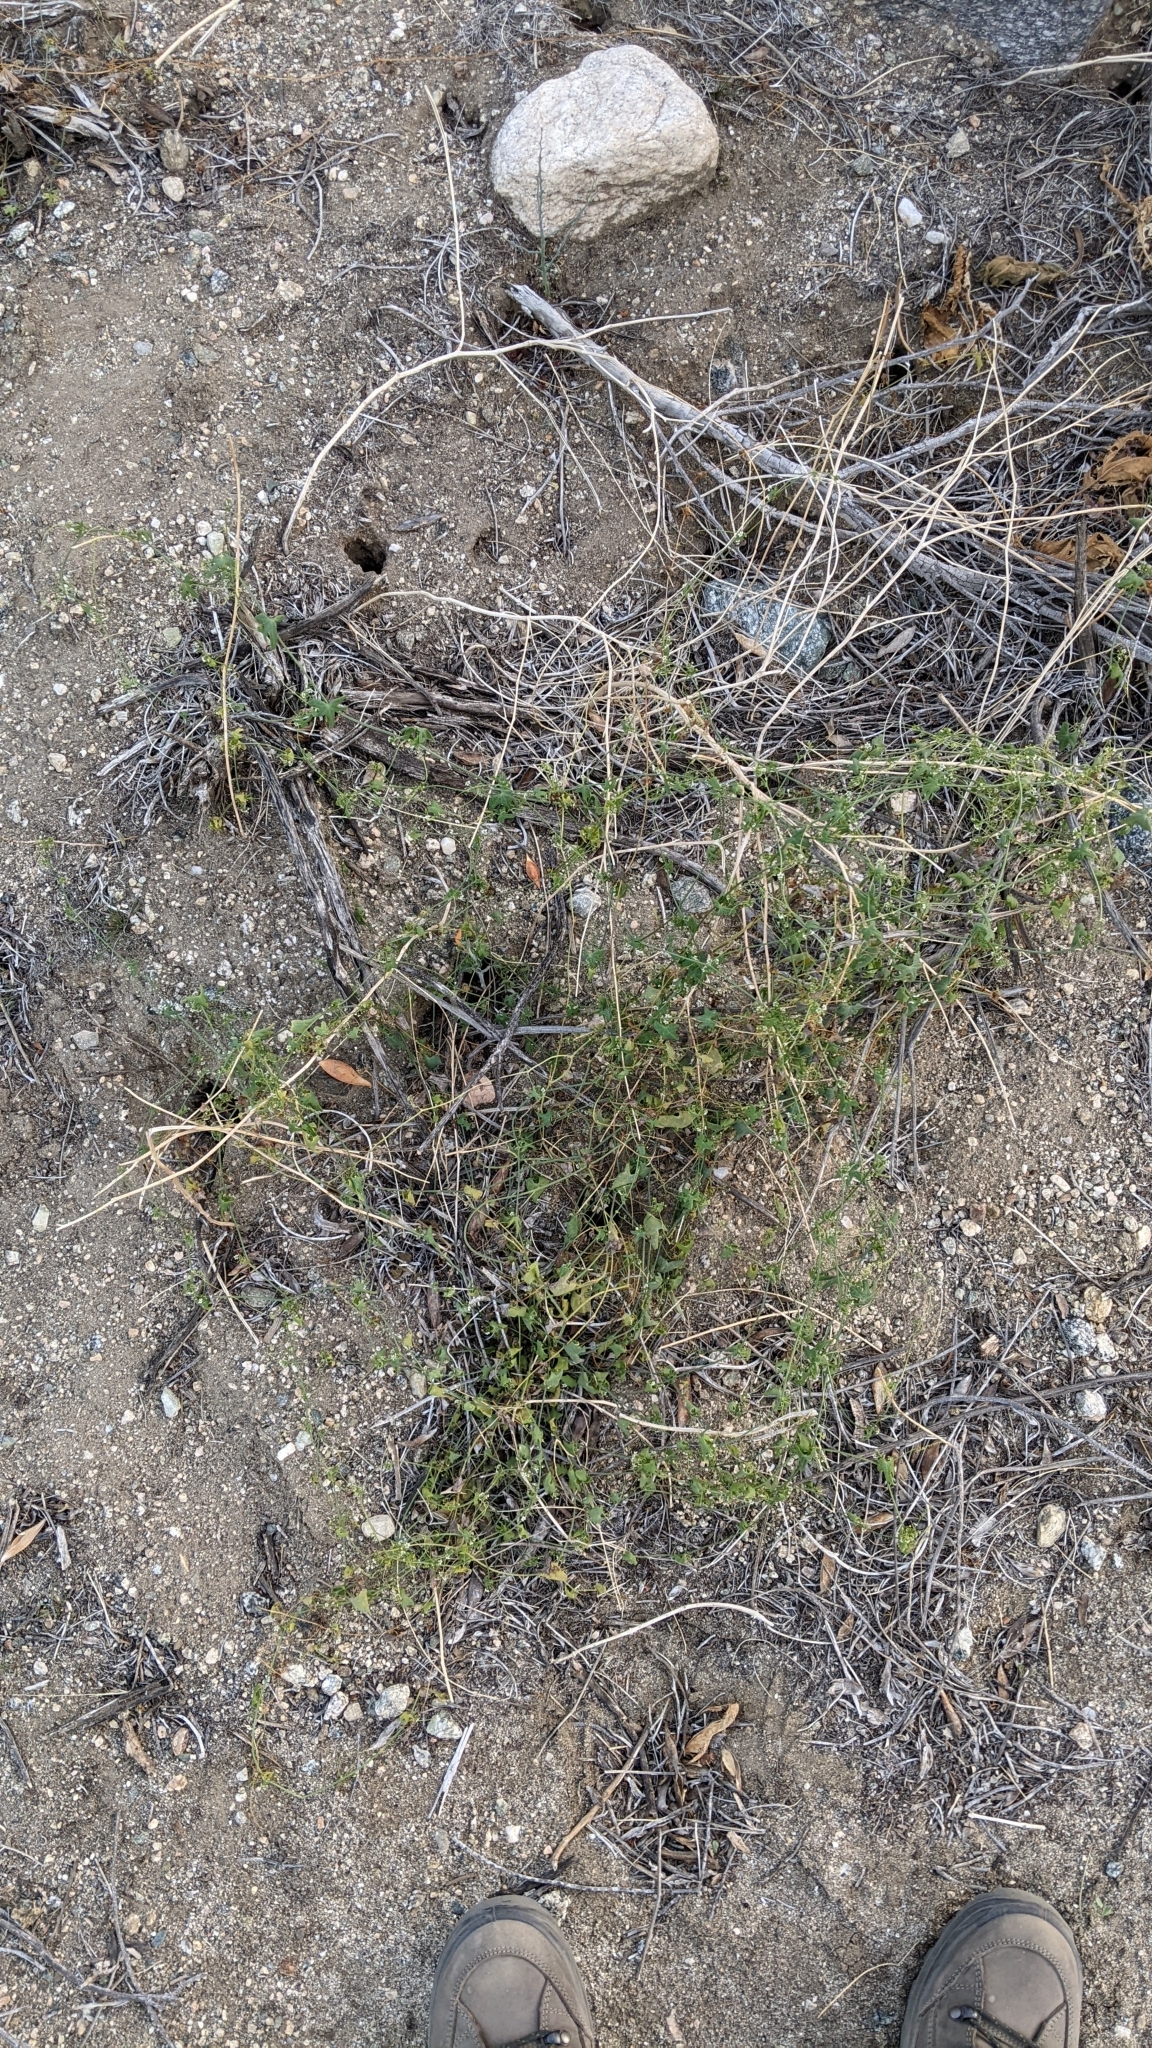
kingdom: Plantae
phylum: Tracheophyta
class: Magnoliopsida
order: Cucurbitales
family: Cucurbitaceae
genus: Echinopepon
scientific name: Echinopepon bigelovii
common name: Desert starvine
